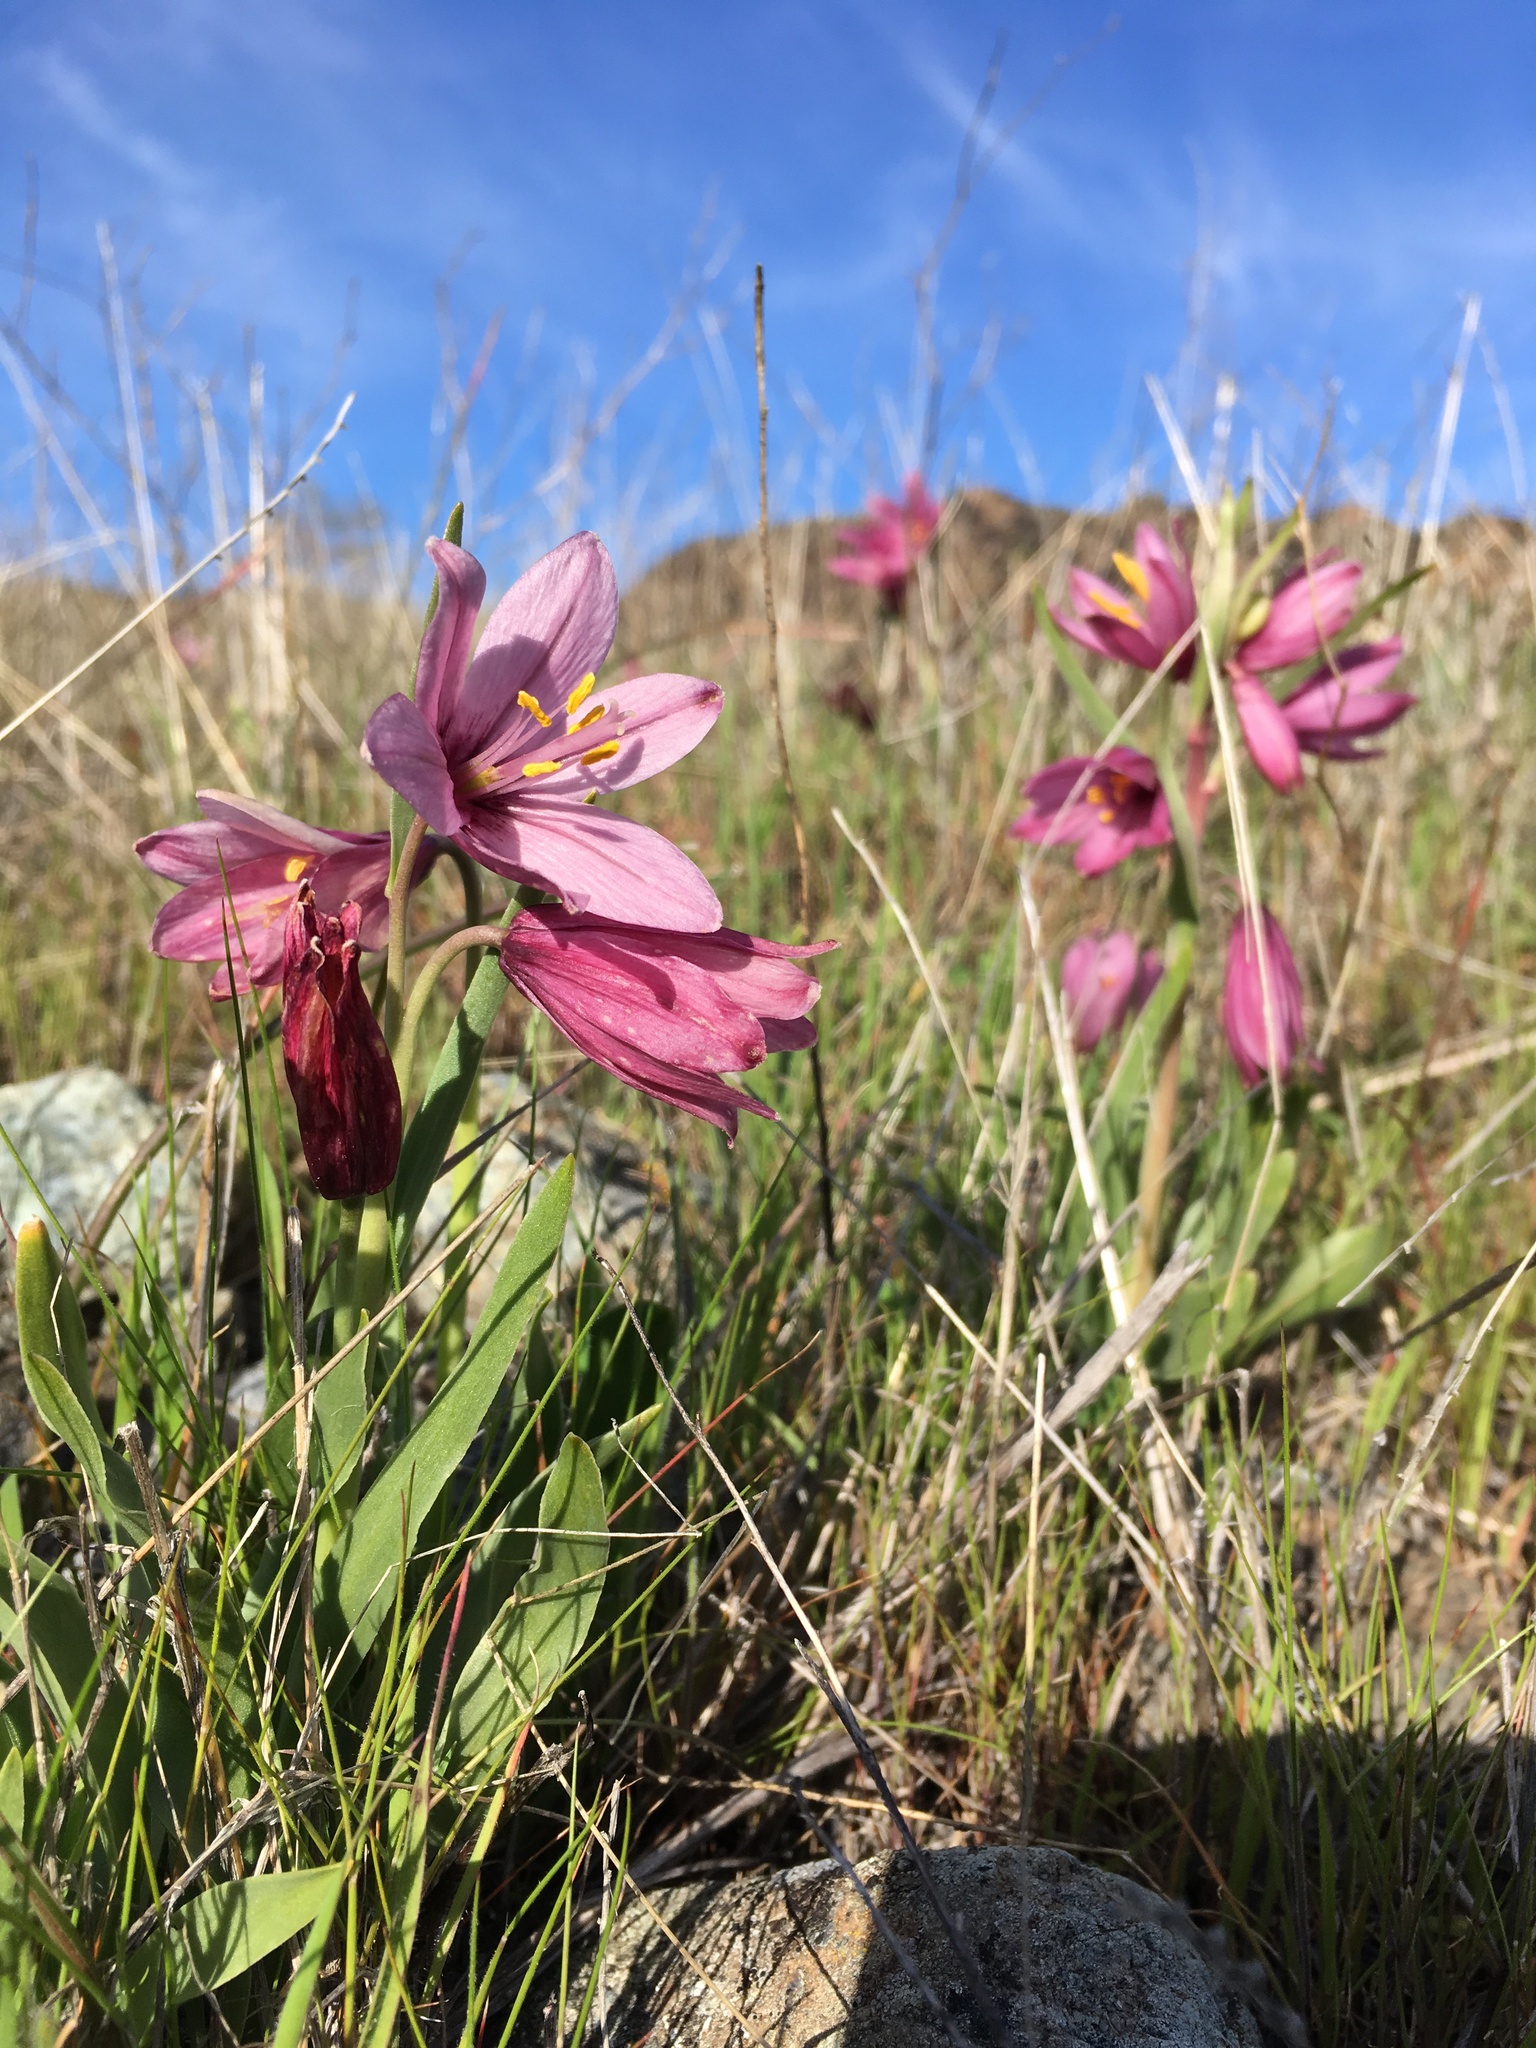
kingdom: Plantae
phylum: Tracheophyta
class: Liliopsida
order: Liliales
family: Liliaceae
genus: Fritillaria
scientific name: Fritillaria pluriflora
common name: Adobe-lily
